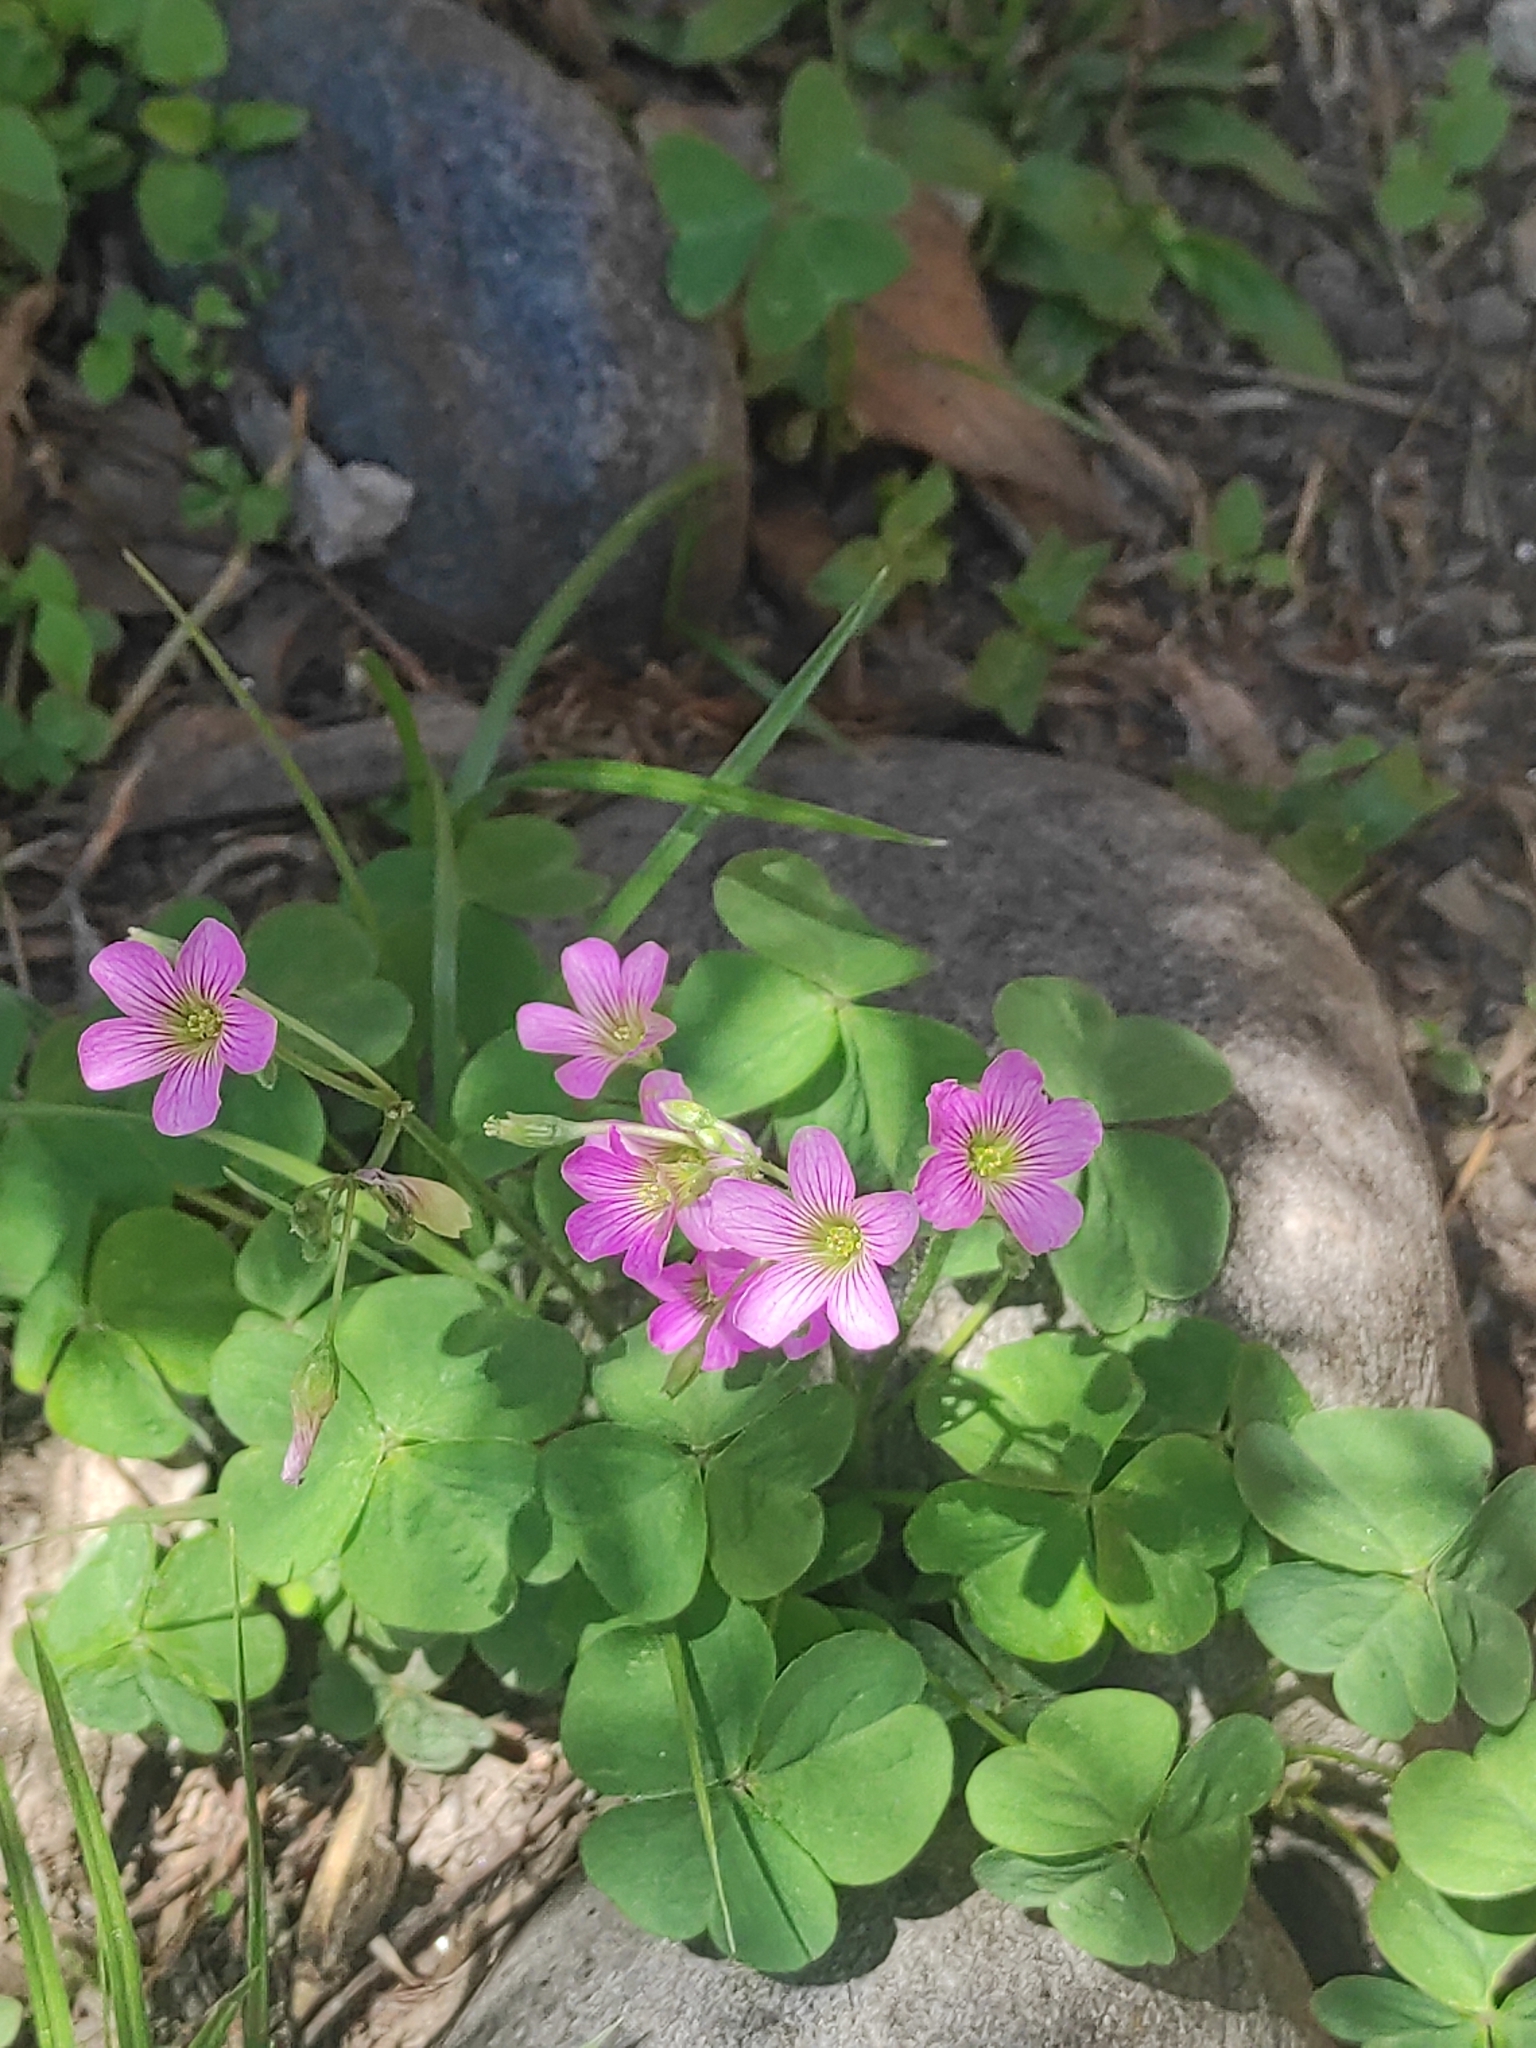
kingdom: Plantae
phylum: Tracheophyta
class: Magnoliopsida
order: Oxalidales
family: Oxalidaceae
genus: Oxalis
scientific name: Oxalis debilis
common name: Large-flowered pink-sorrel
